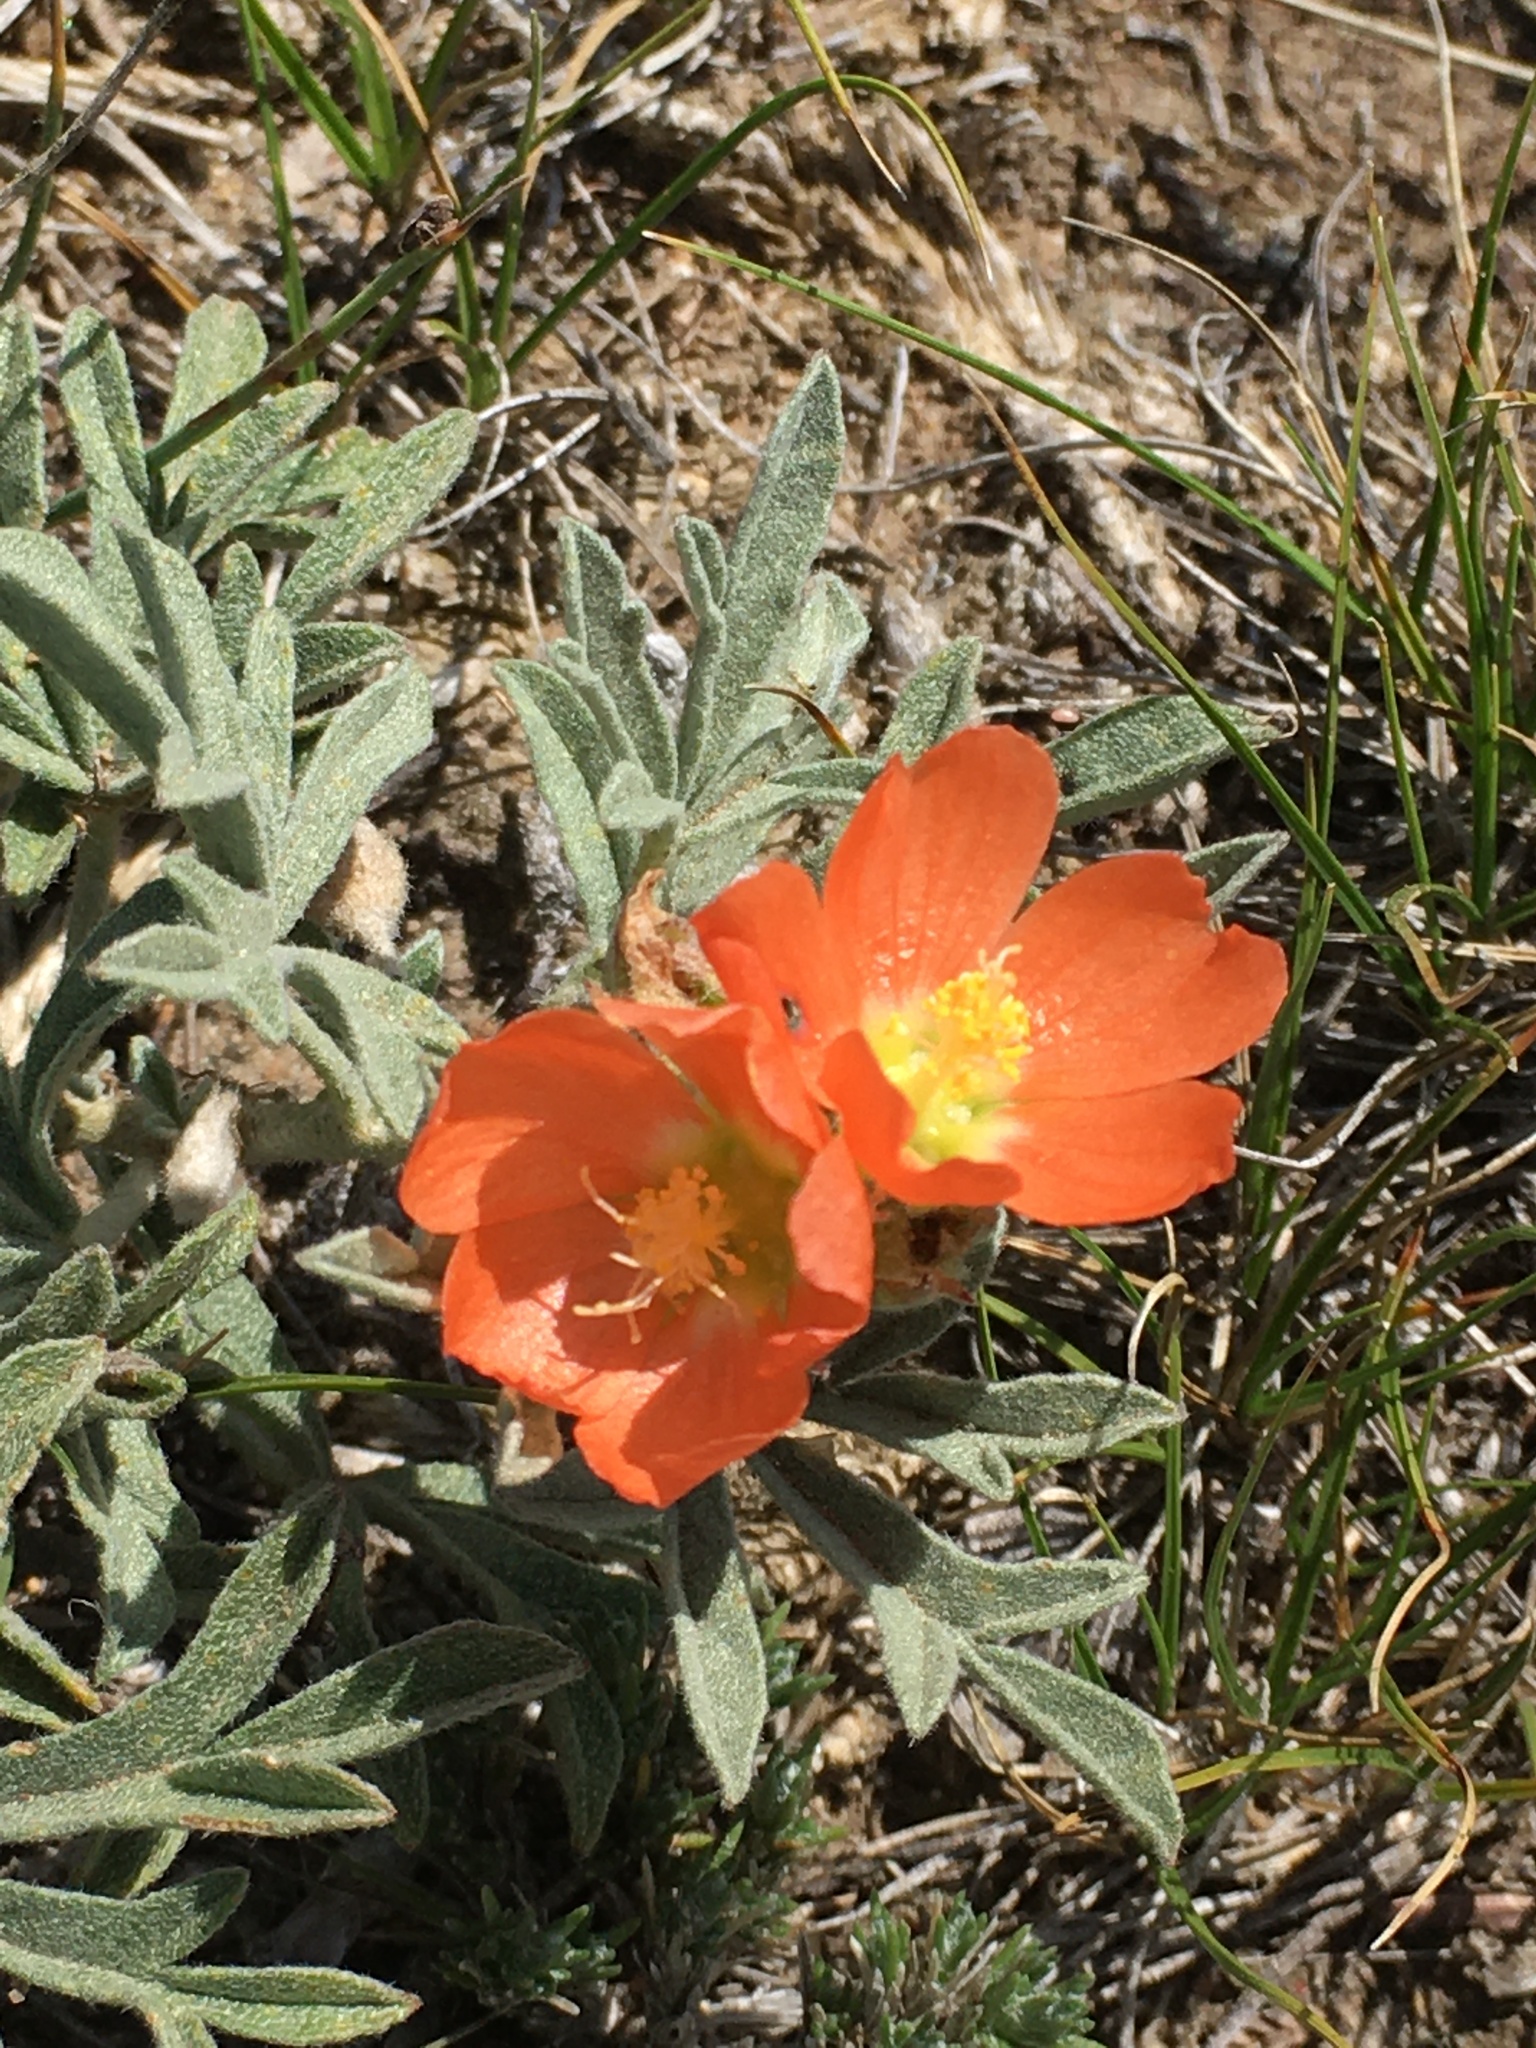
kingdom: Plantae
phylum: Tracheophyta
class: Magnoliopsida
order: Malvales
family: Malvaceae
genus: Sphaeralcea
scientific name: Sphaeralcea coccinea
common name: Moss-rose
